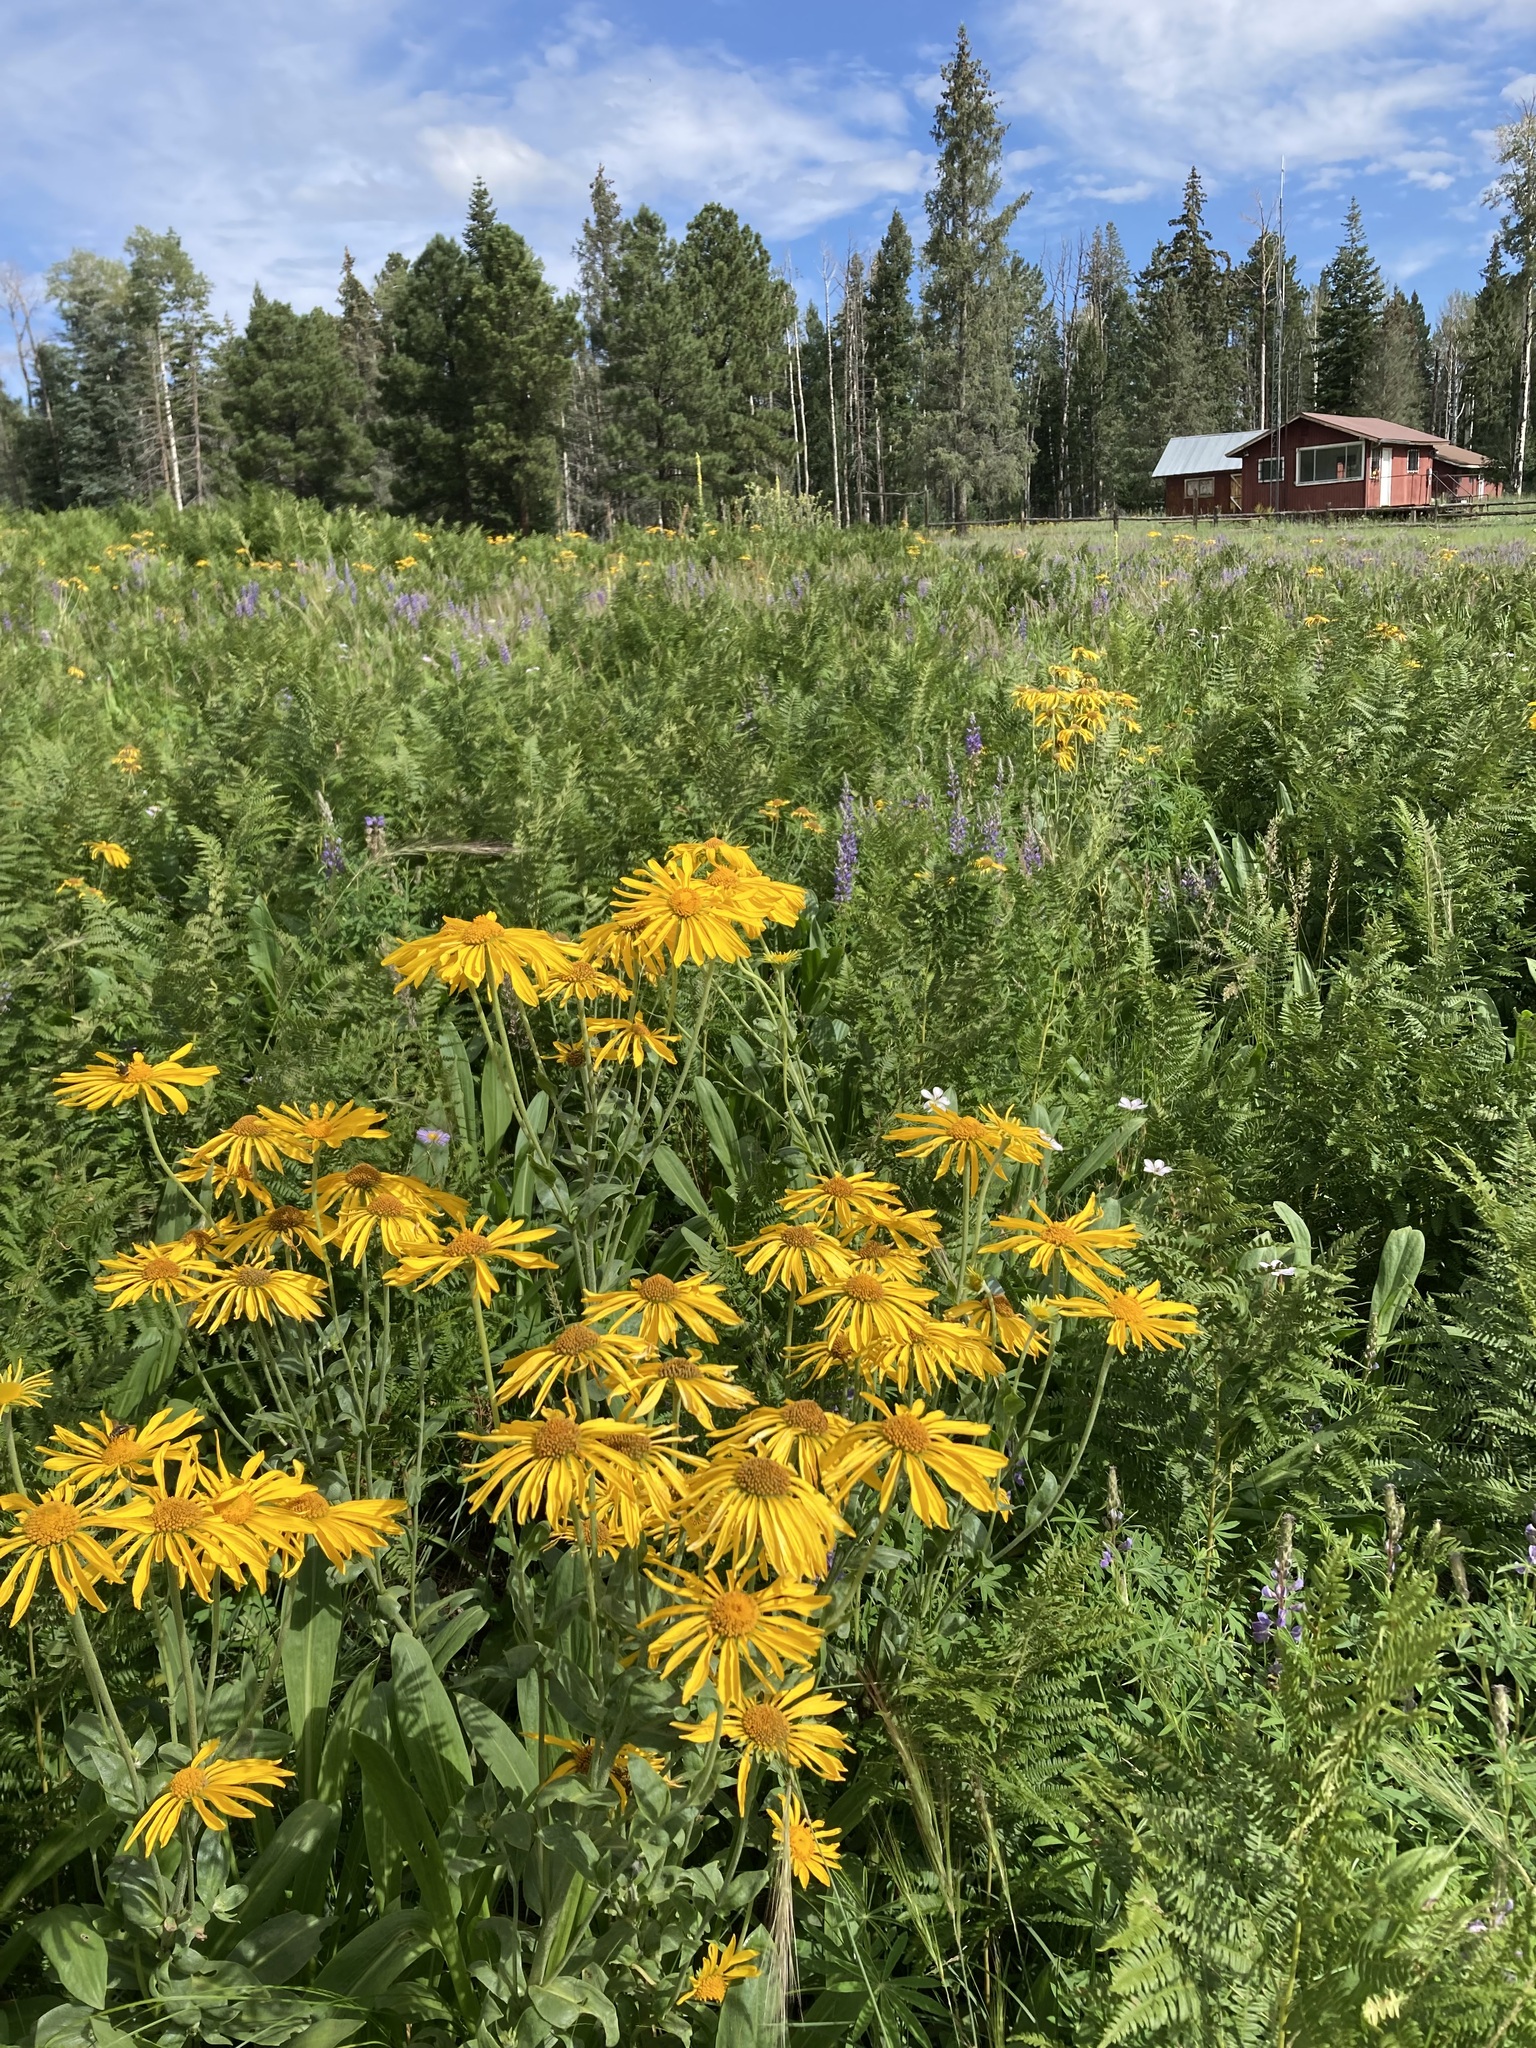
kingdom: Plantae
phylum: Tracheophyta
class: Magnoliopsida
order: Asterales
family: Asteraceae
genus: Hymenoxys
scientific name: Hymenoxys hoopesii
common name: Orange-sneezeweed
